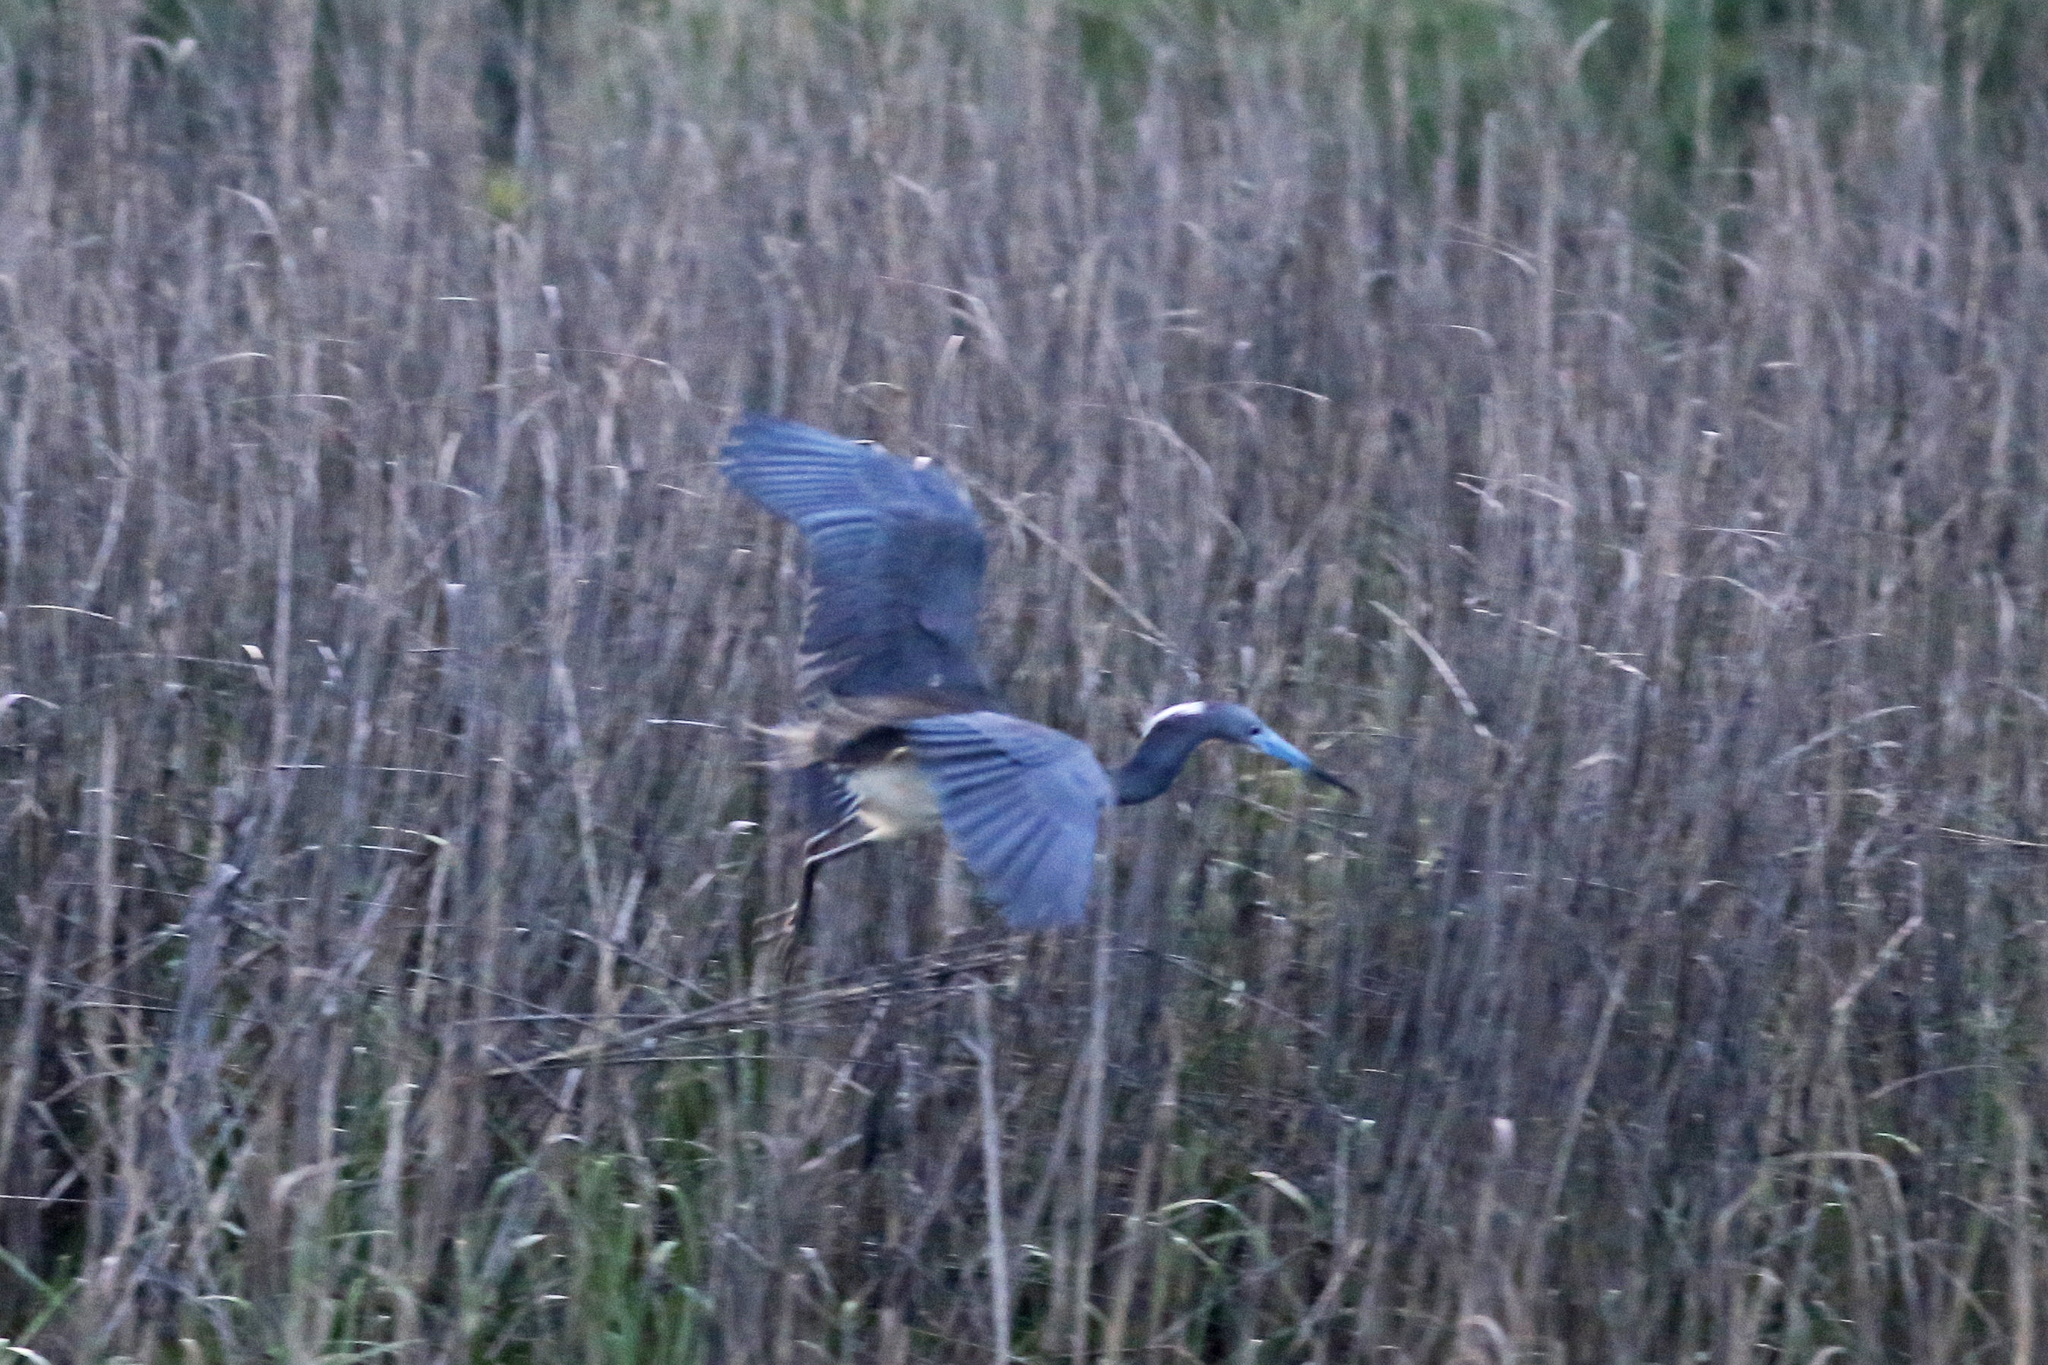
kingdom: Animalia
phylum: Chordata
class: Aves
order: Pelecaniformes
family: Ardeidae
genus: Egretta
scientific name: Egretta tricolor
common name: Tricolored heron
